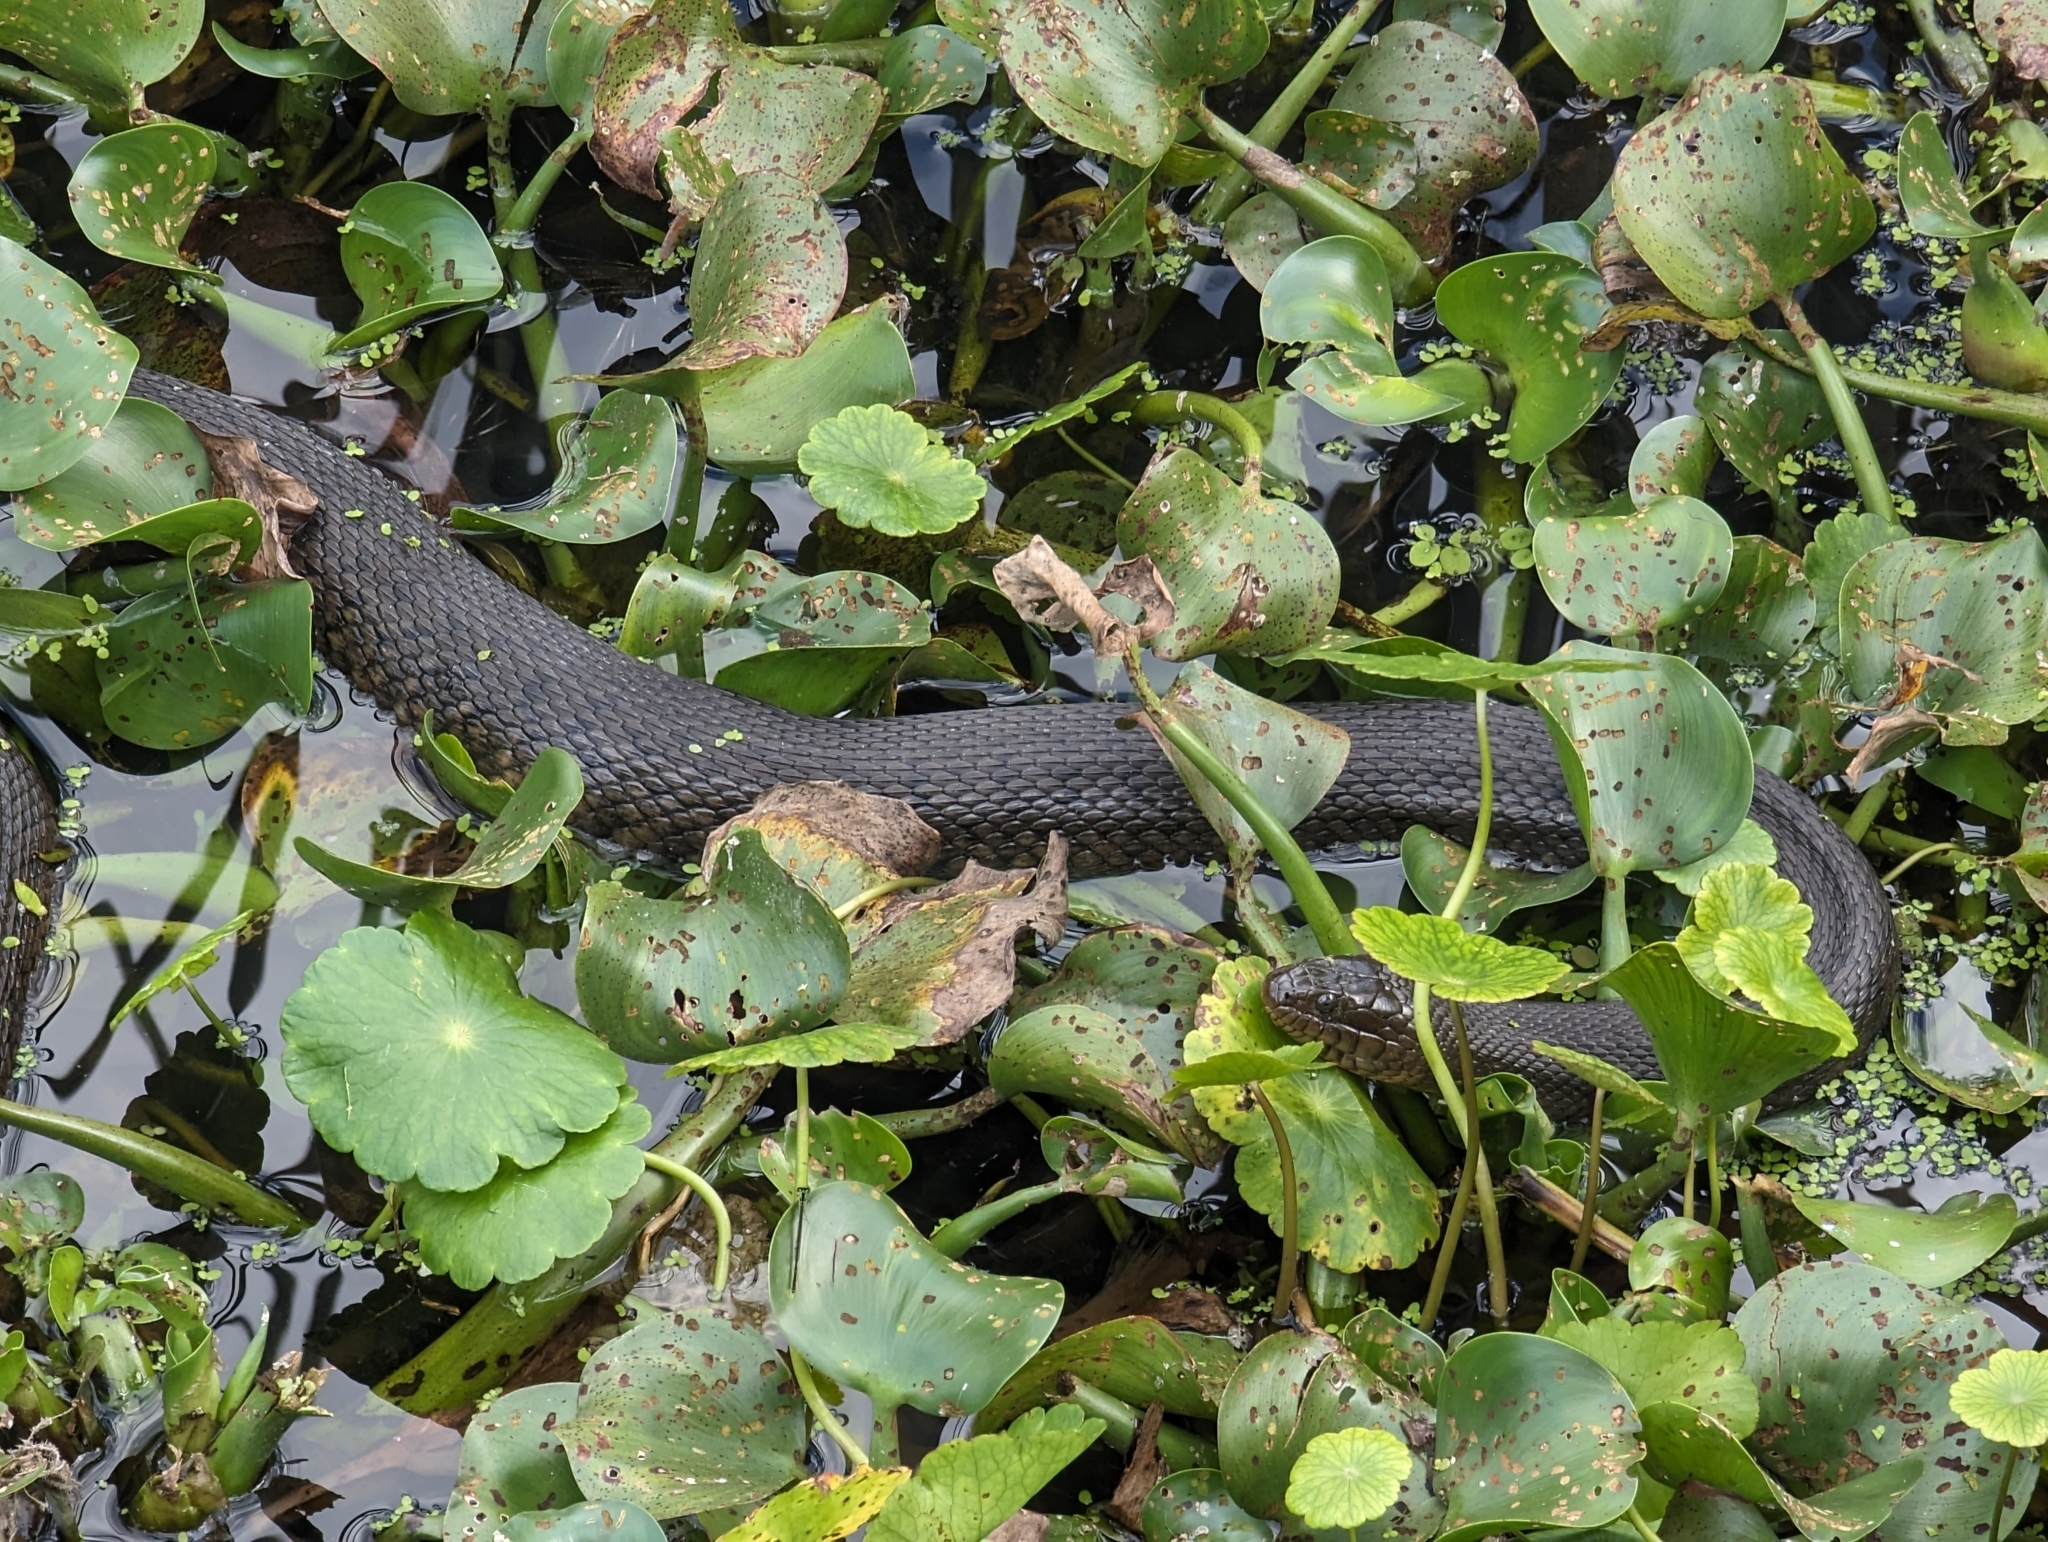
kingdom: Animalia
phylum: Chordata
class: Squamata
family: Colubridae
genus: Nerodia
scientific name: Nerodia floridana
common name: Florida green watersnake
